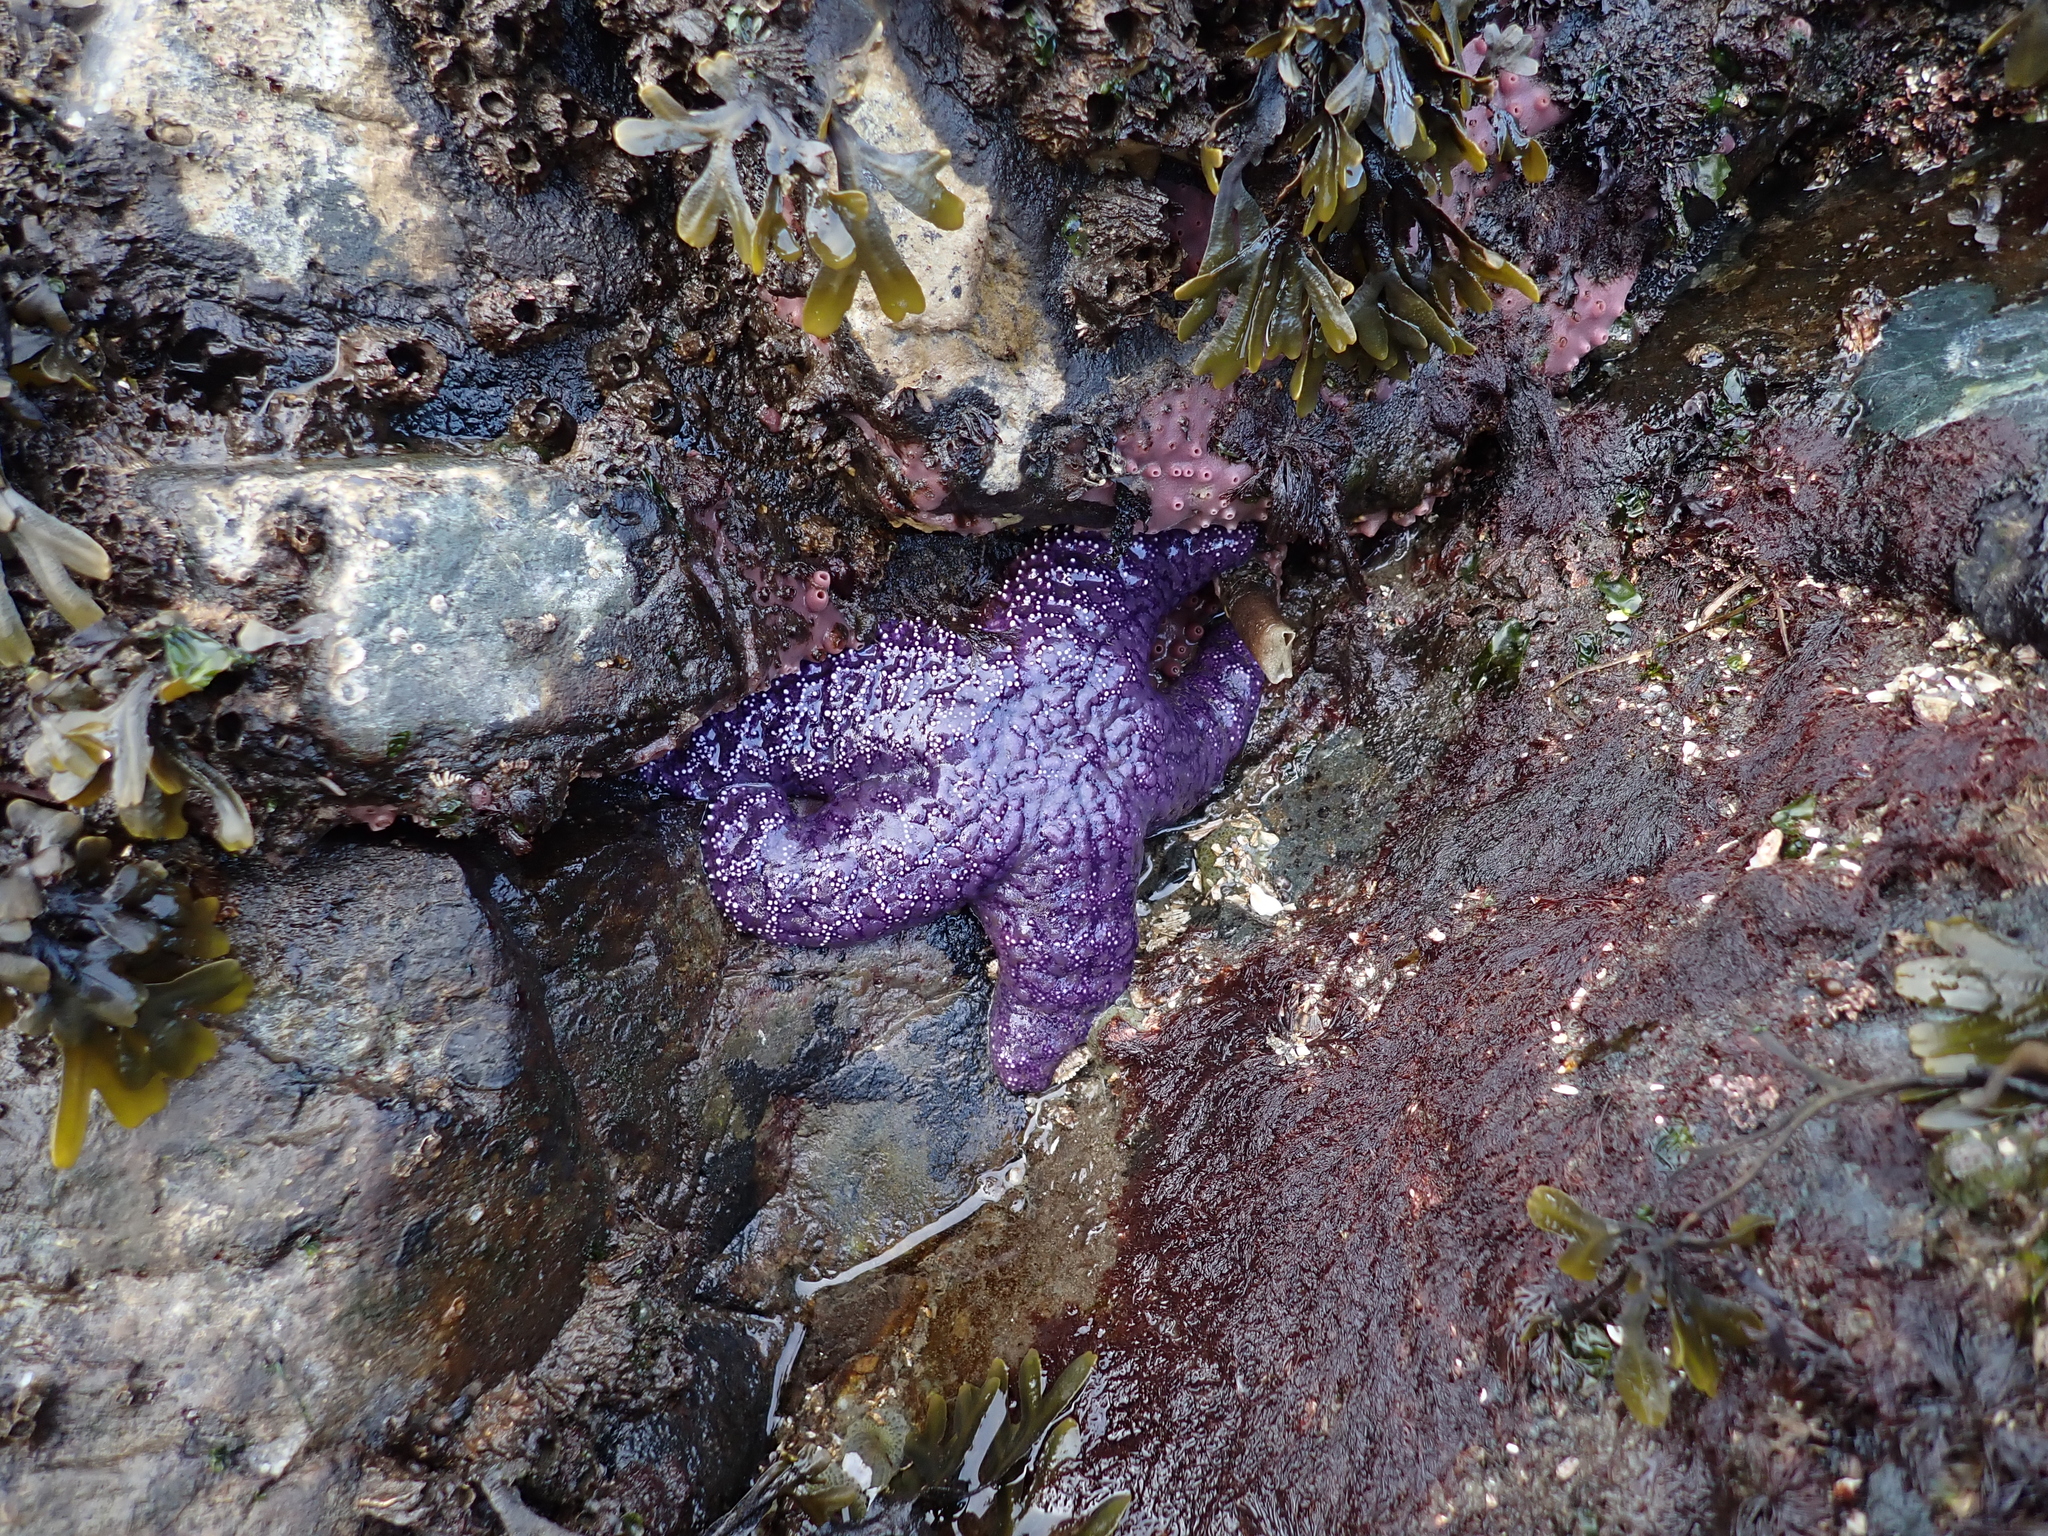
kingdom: Animalia
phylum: Echinodermata
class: Asteroidea
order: Forcipulatida
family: Asteriidae
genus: Pisaster
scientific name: Pisaster ochraceus
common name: Ochre stars
